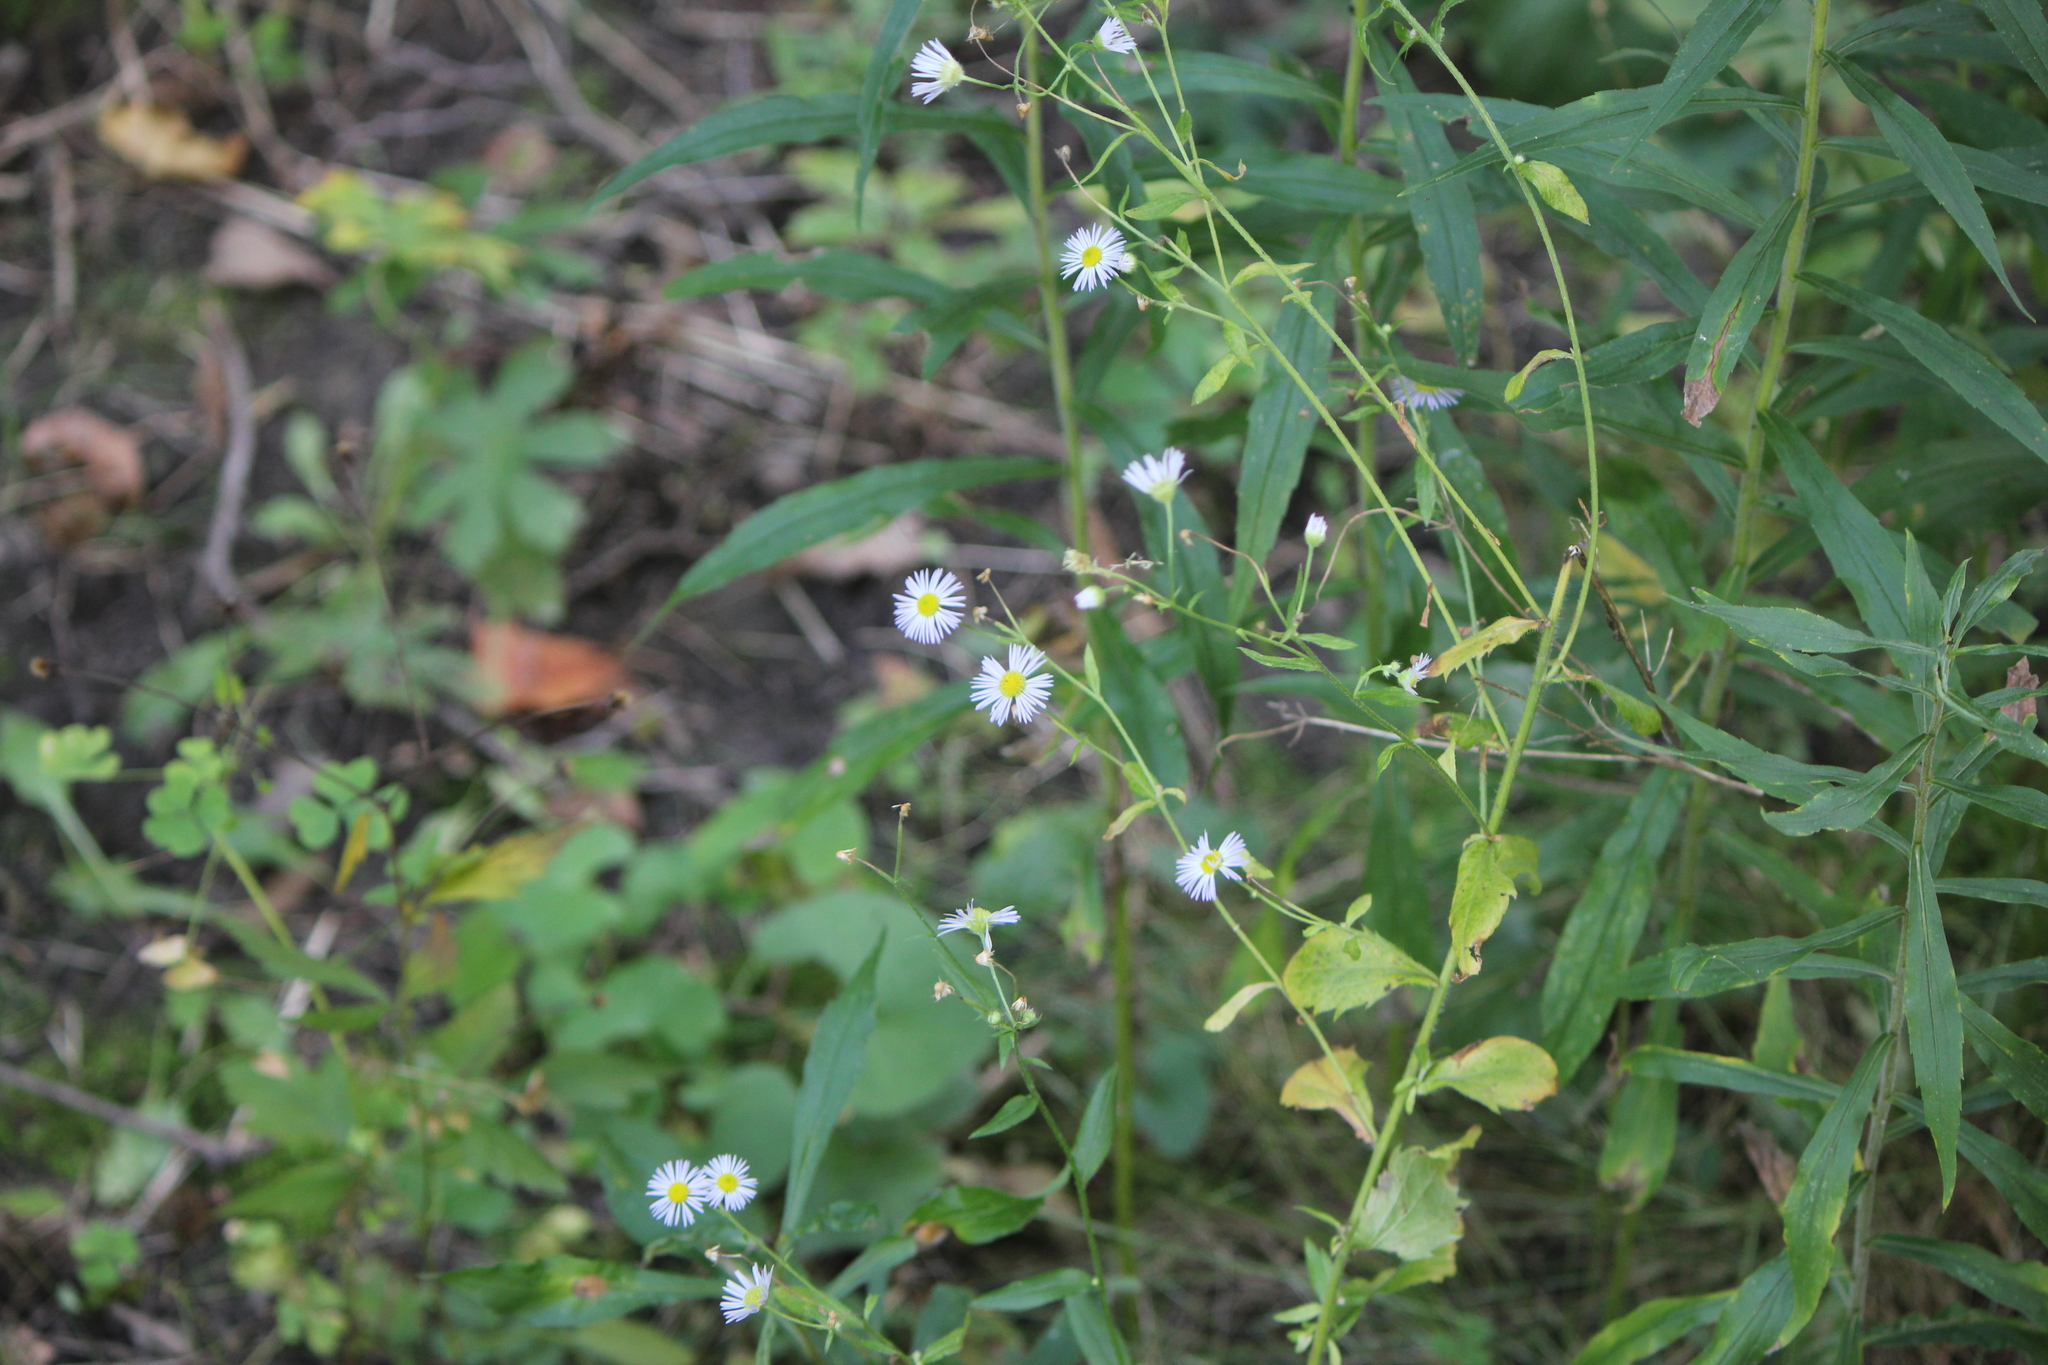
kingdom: Plantae
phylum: Tracheophyta
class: Magnoliopsida
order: Asterales
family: Asteraceae
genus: Erigeron
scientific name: Erigeron annuus
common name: Tall fleabane
